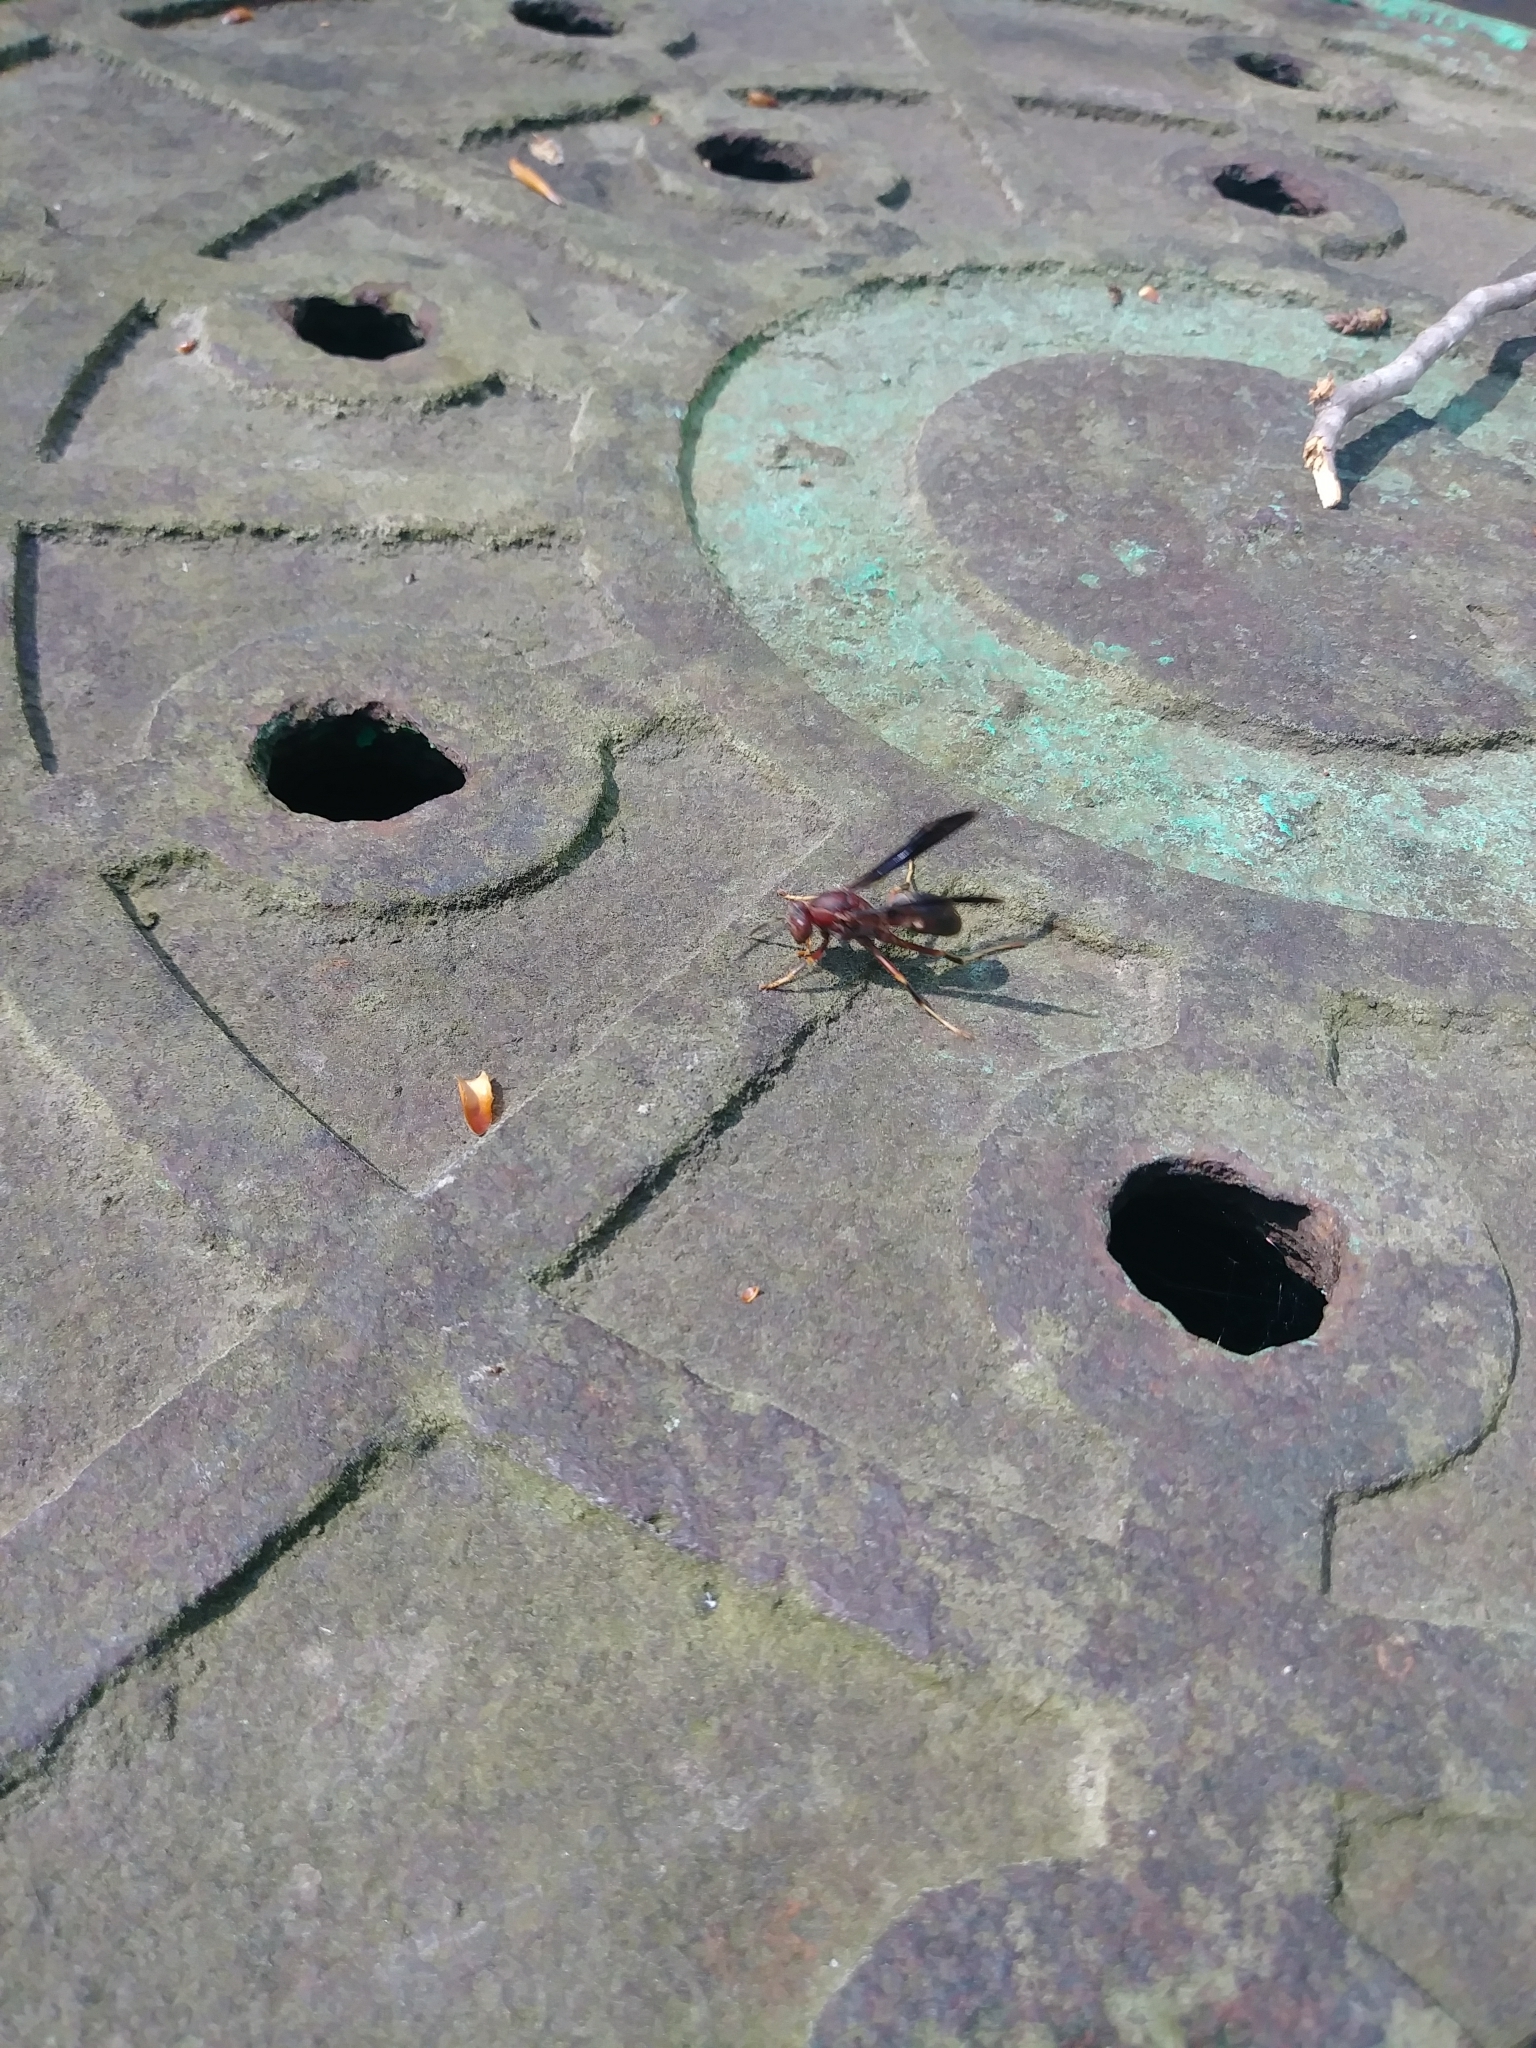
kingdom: Animalia
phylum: Arthropoda
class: Insecta
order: Hymenoptera
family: Eumenidae
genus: Polistes
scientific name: Polistes metricus
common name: Metric paper wasp
